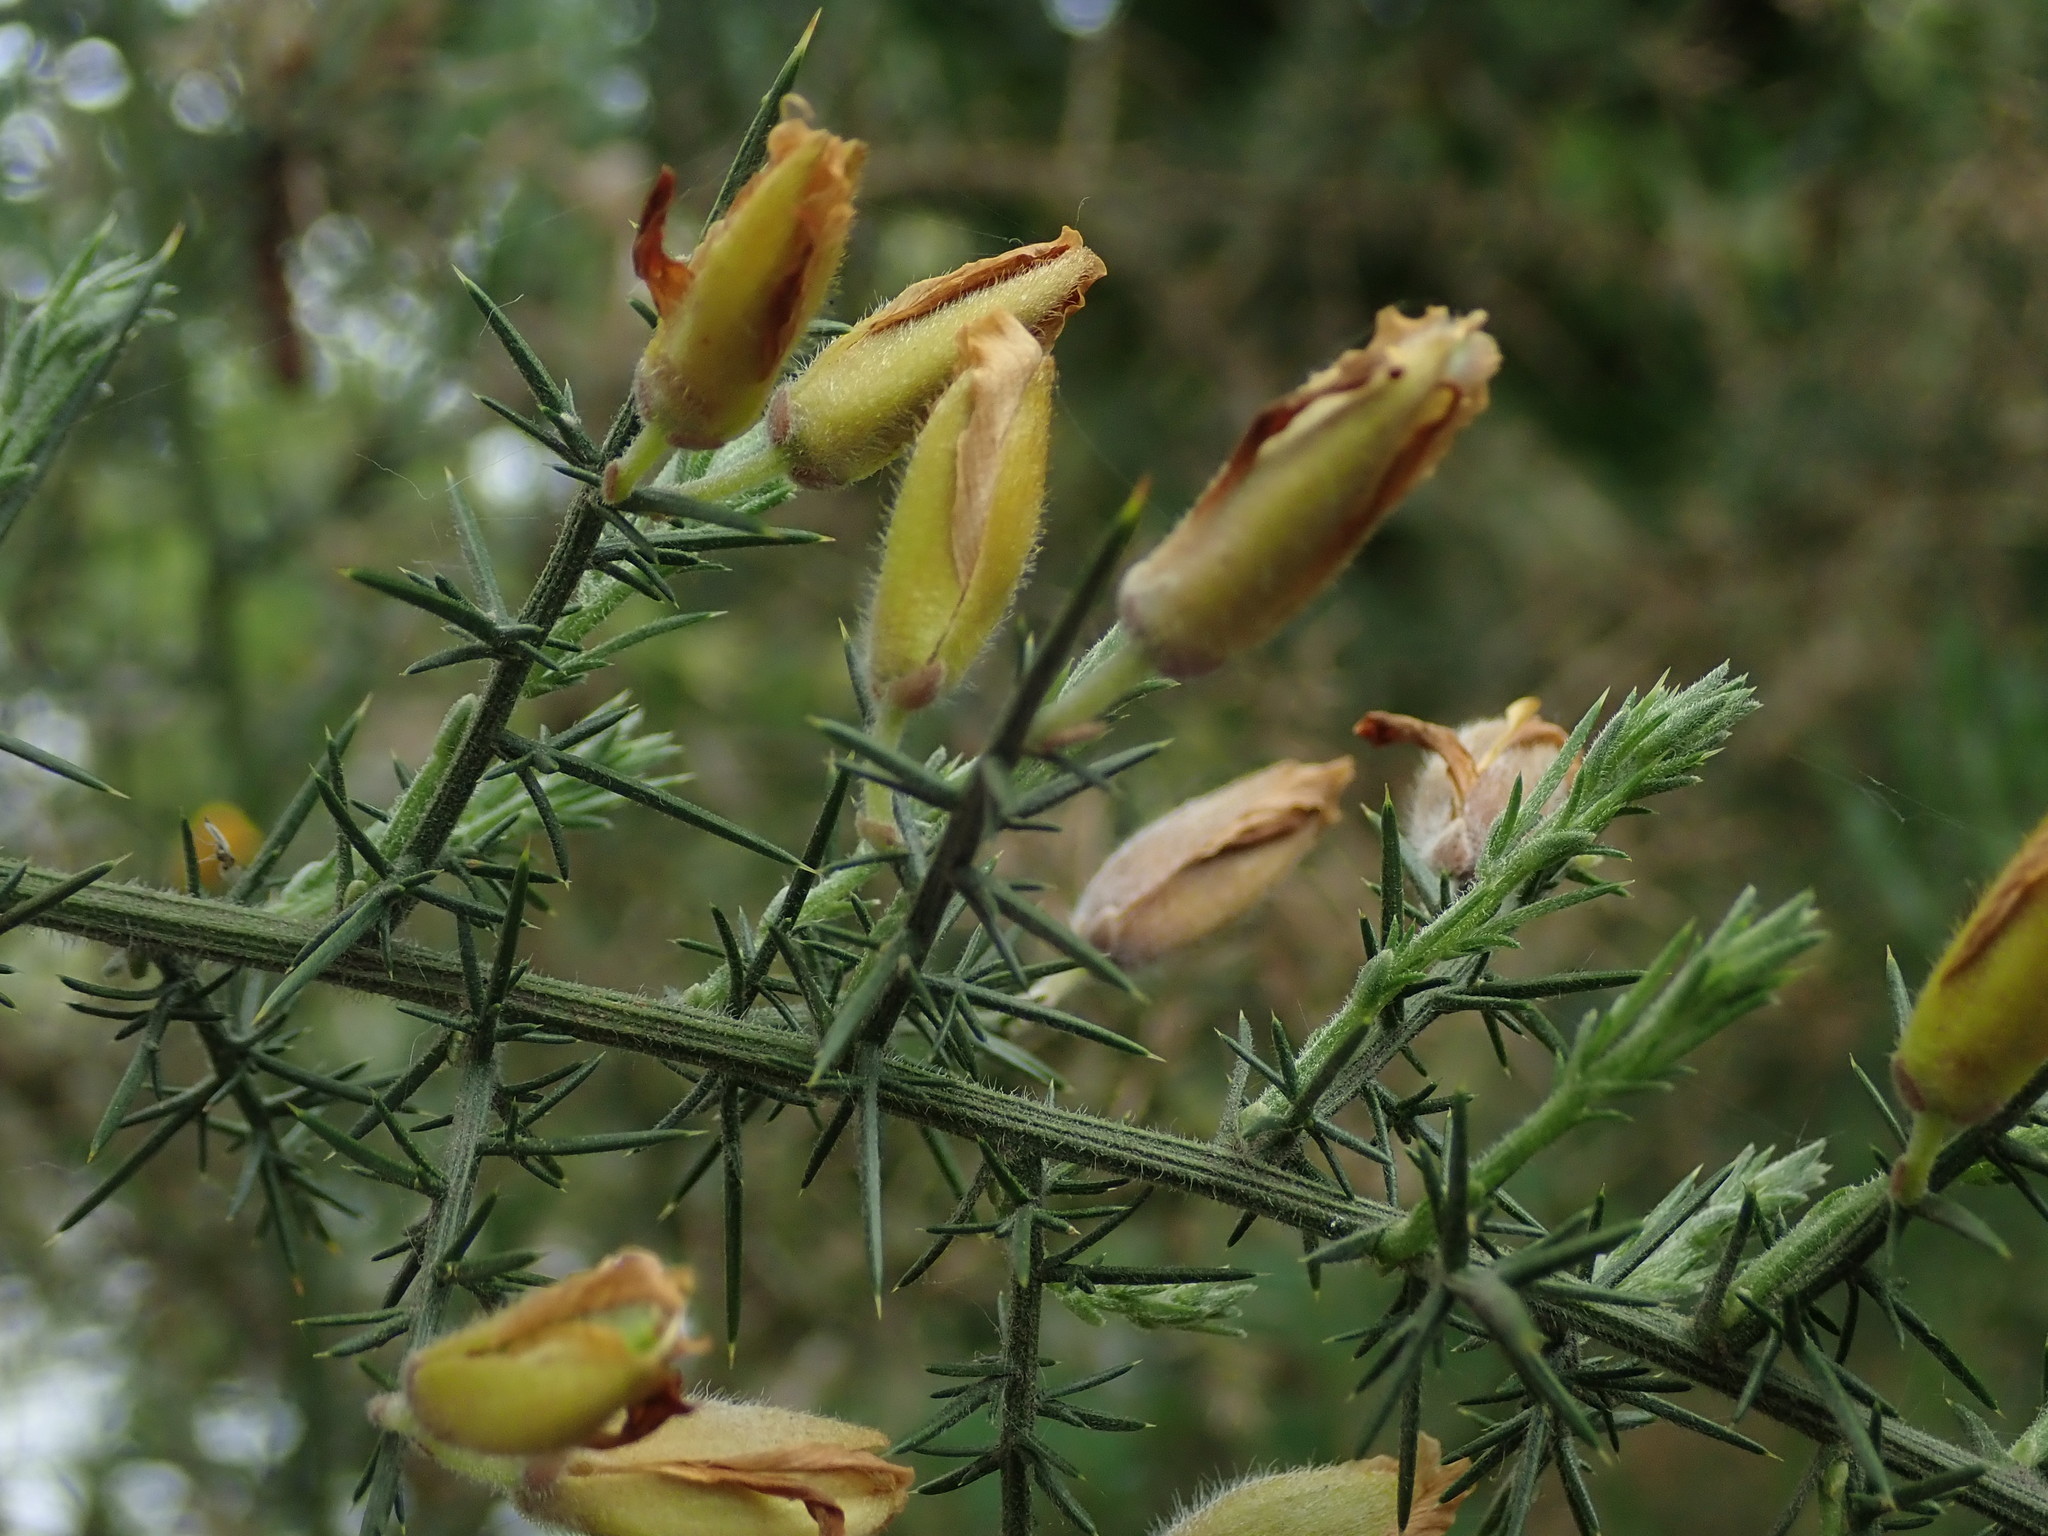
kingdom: Plantae
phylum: Tracheophyta
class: Magnoliopsida
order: Fabales
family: Fabaceae
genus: Ulex
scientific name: Ulex europaeus
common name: Common gorse
